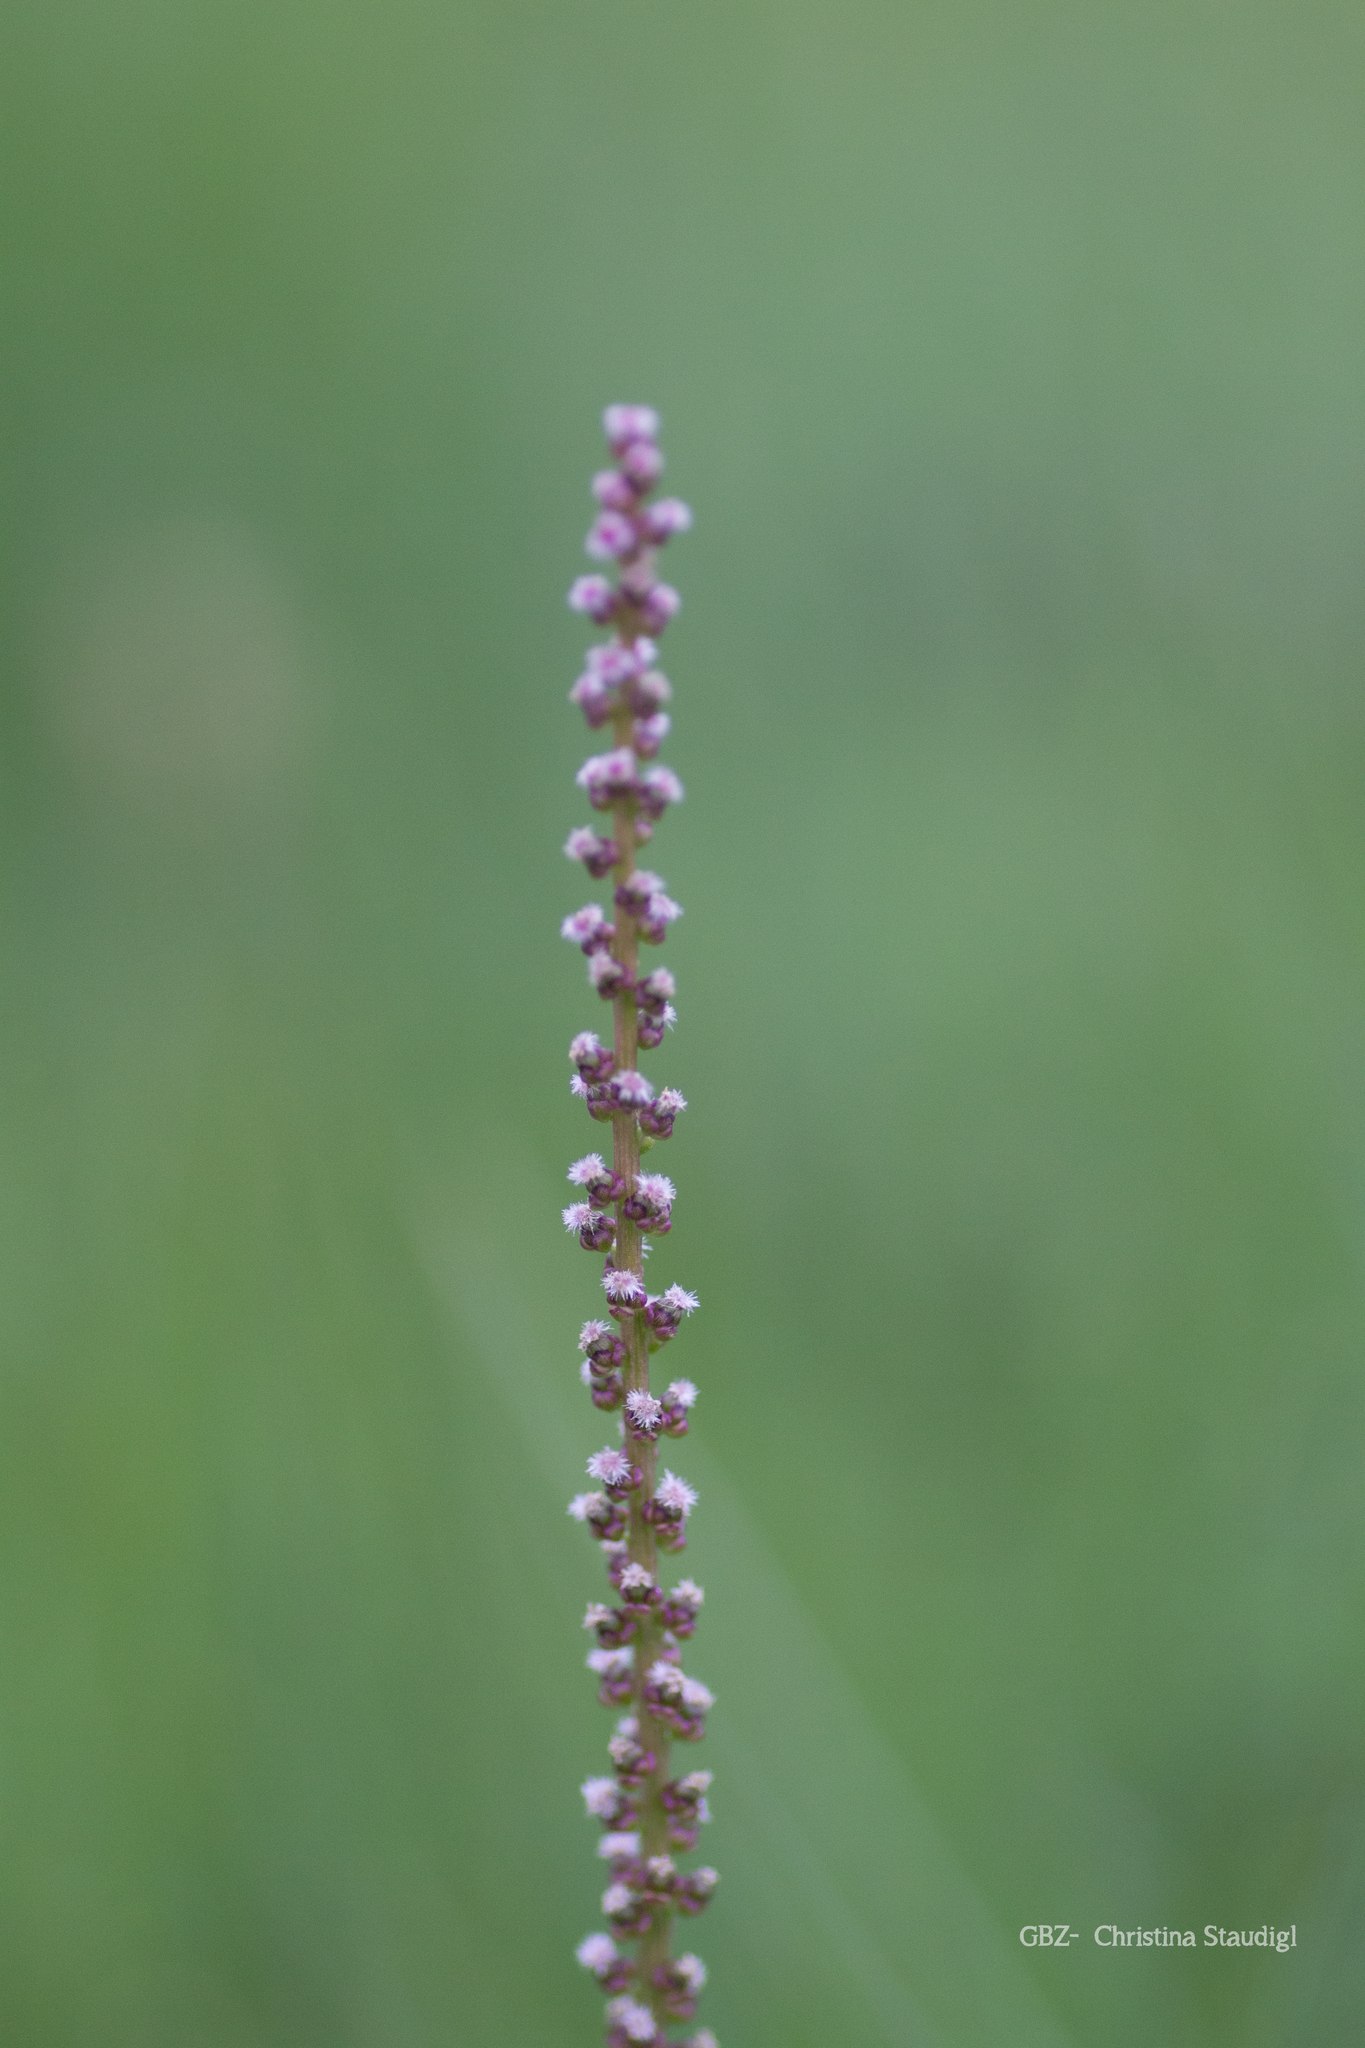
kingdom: Plantae
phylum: Tracheophyta
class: Liliopsida
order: Alismatales
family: Juncaginaceae
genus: Triglochin
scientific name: Triglochin maritima
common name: Sea arrowgrass
